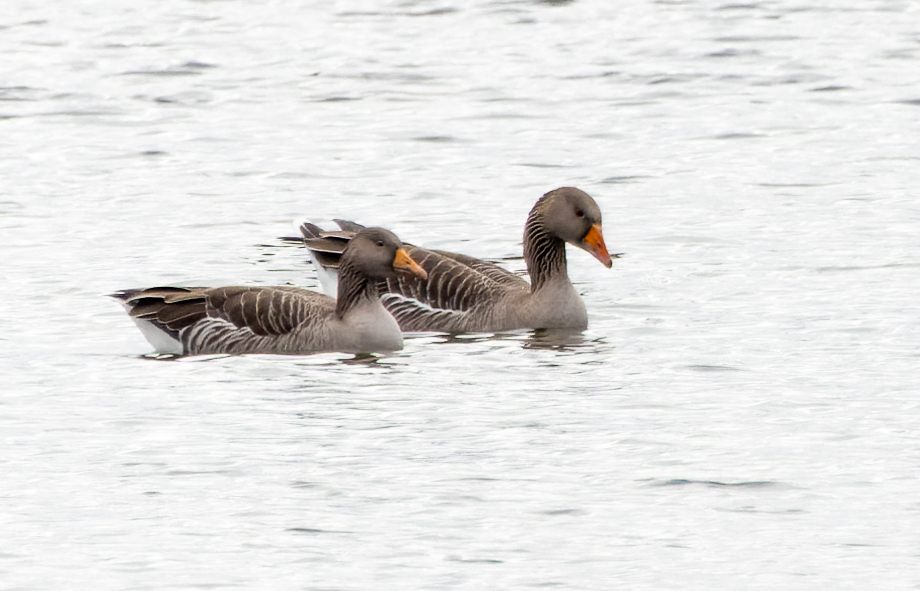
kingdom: Animalia
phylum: Chordata
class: Aves
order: Anseriformes
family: Anatidae
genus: Anser
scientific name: Anser anser
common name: Greylag goose
